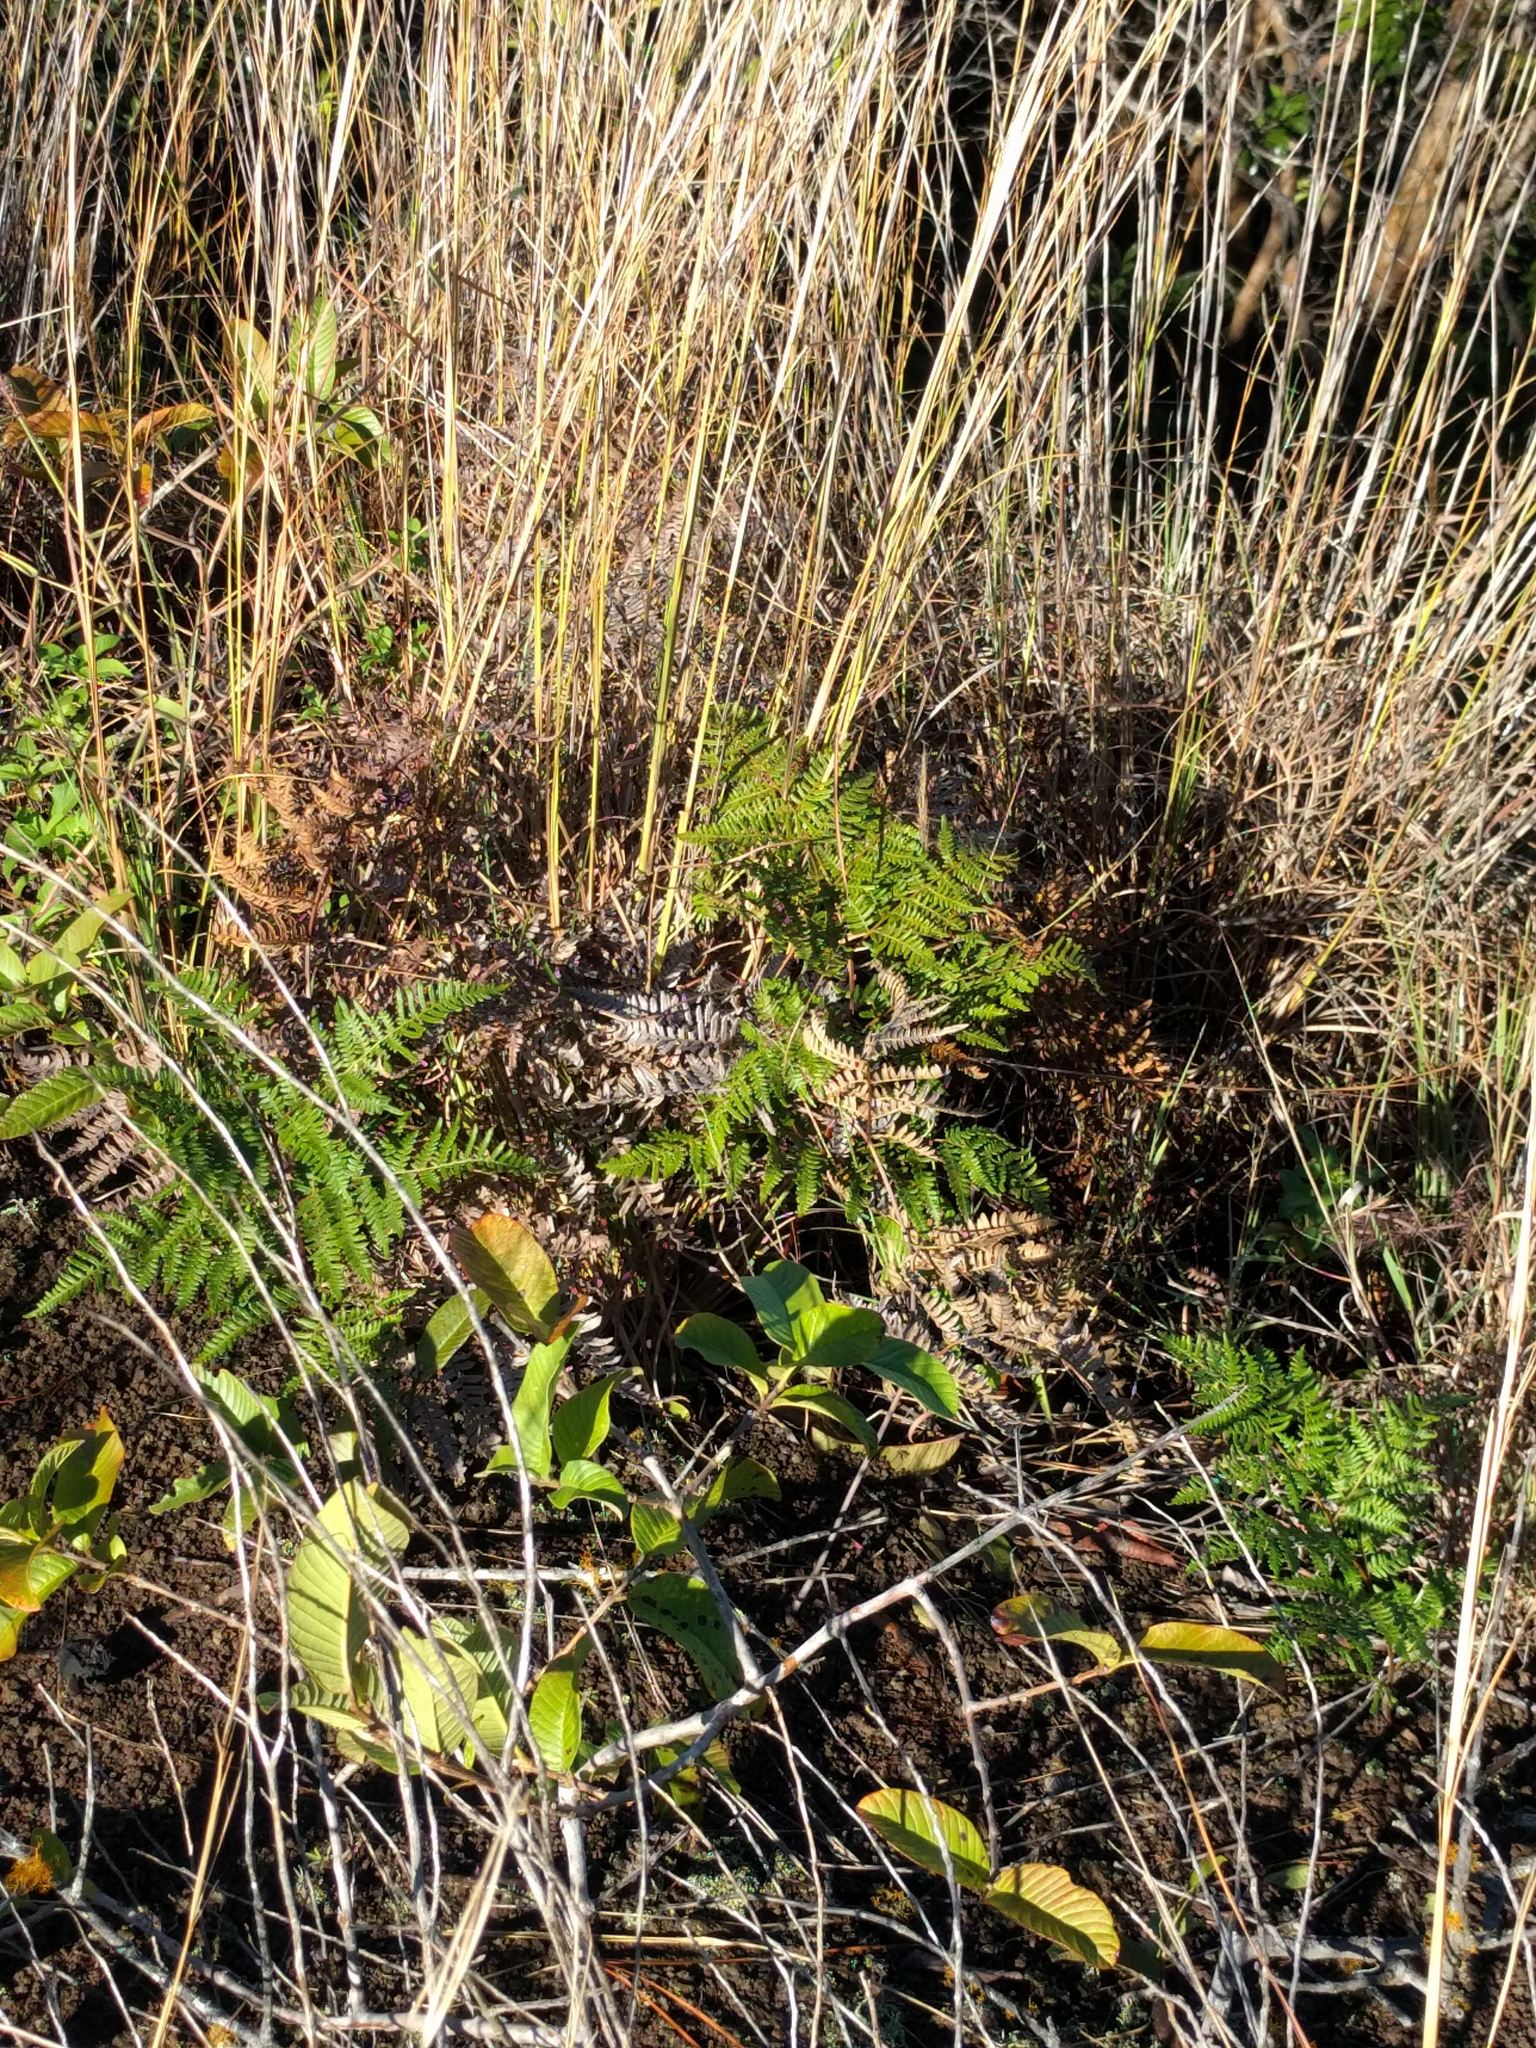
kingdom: Plantae
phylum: Tracheophyta
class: Polypodiopsida
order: Polypodiales
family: Dennstaedtiaceae
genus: Pteridium
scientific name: Pteridium aquilinum
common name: Bracken
